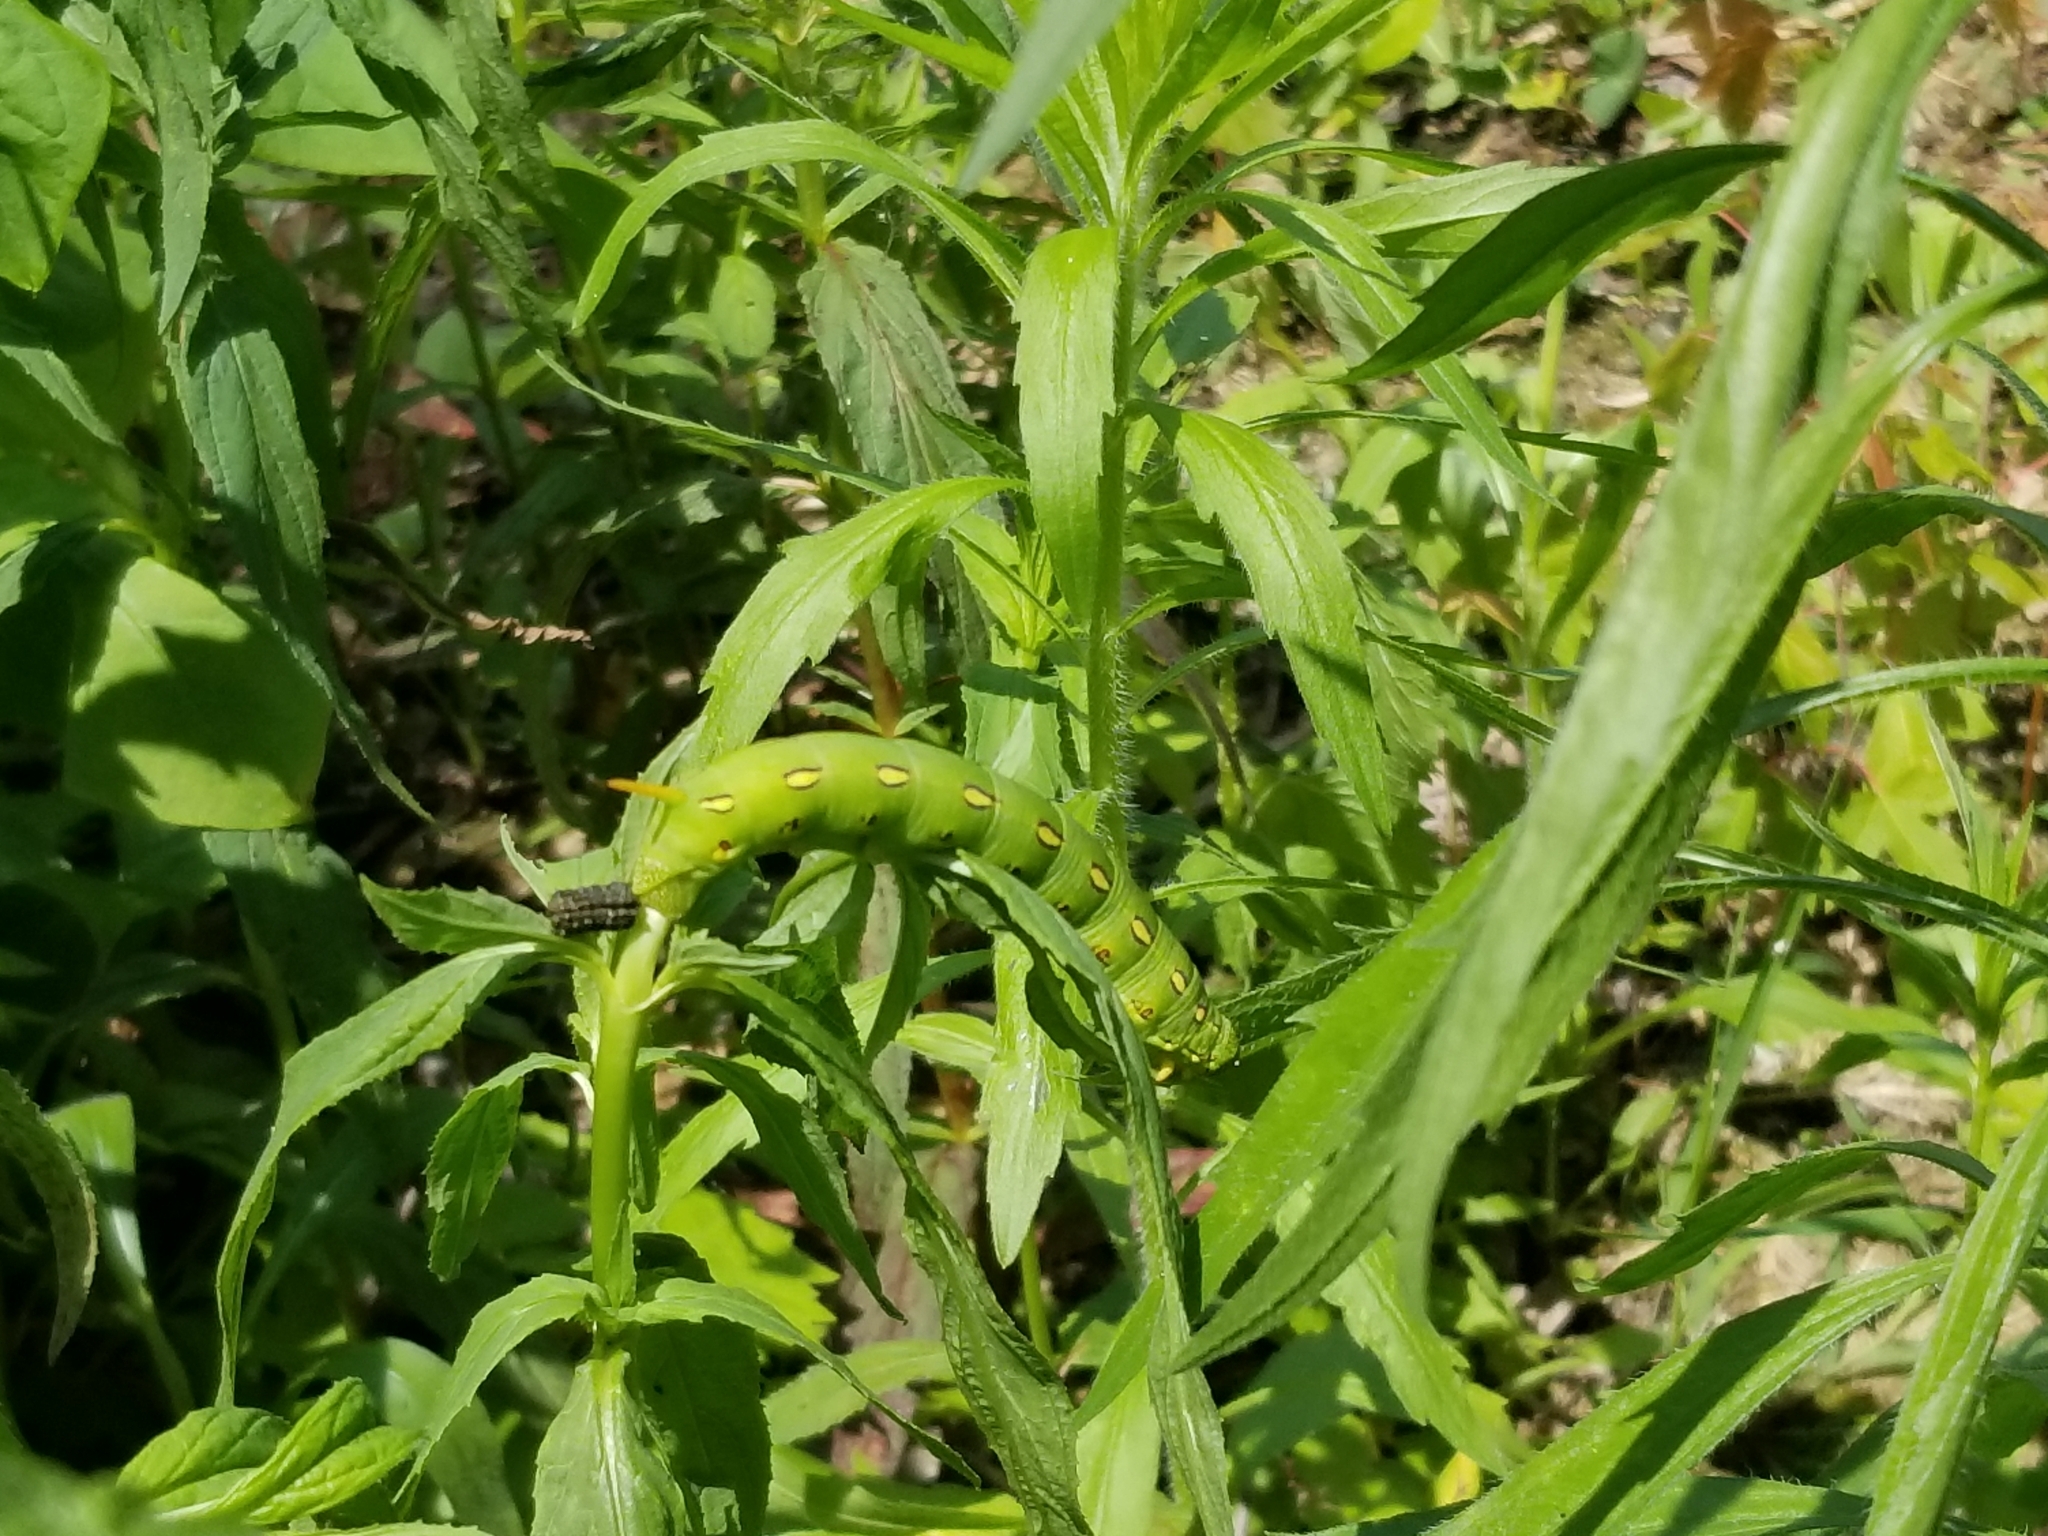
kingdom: Animalia
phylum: Arthropoda
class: Insecta
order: Lepidoptera
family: Sphingidae
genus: Hyles
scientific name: Hyles lineata
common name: White-lined sphinx
